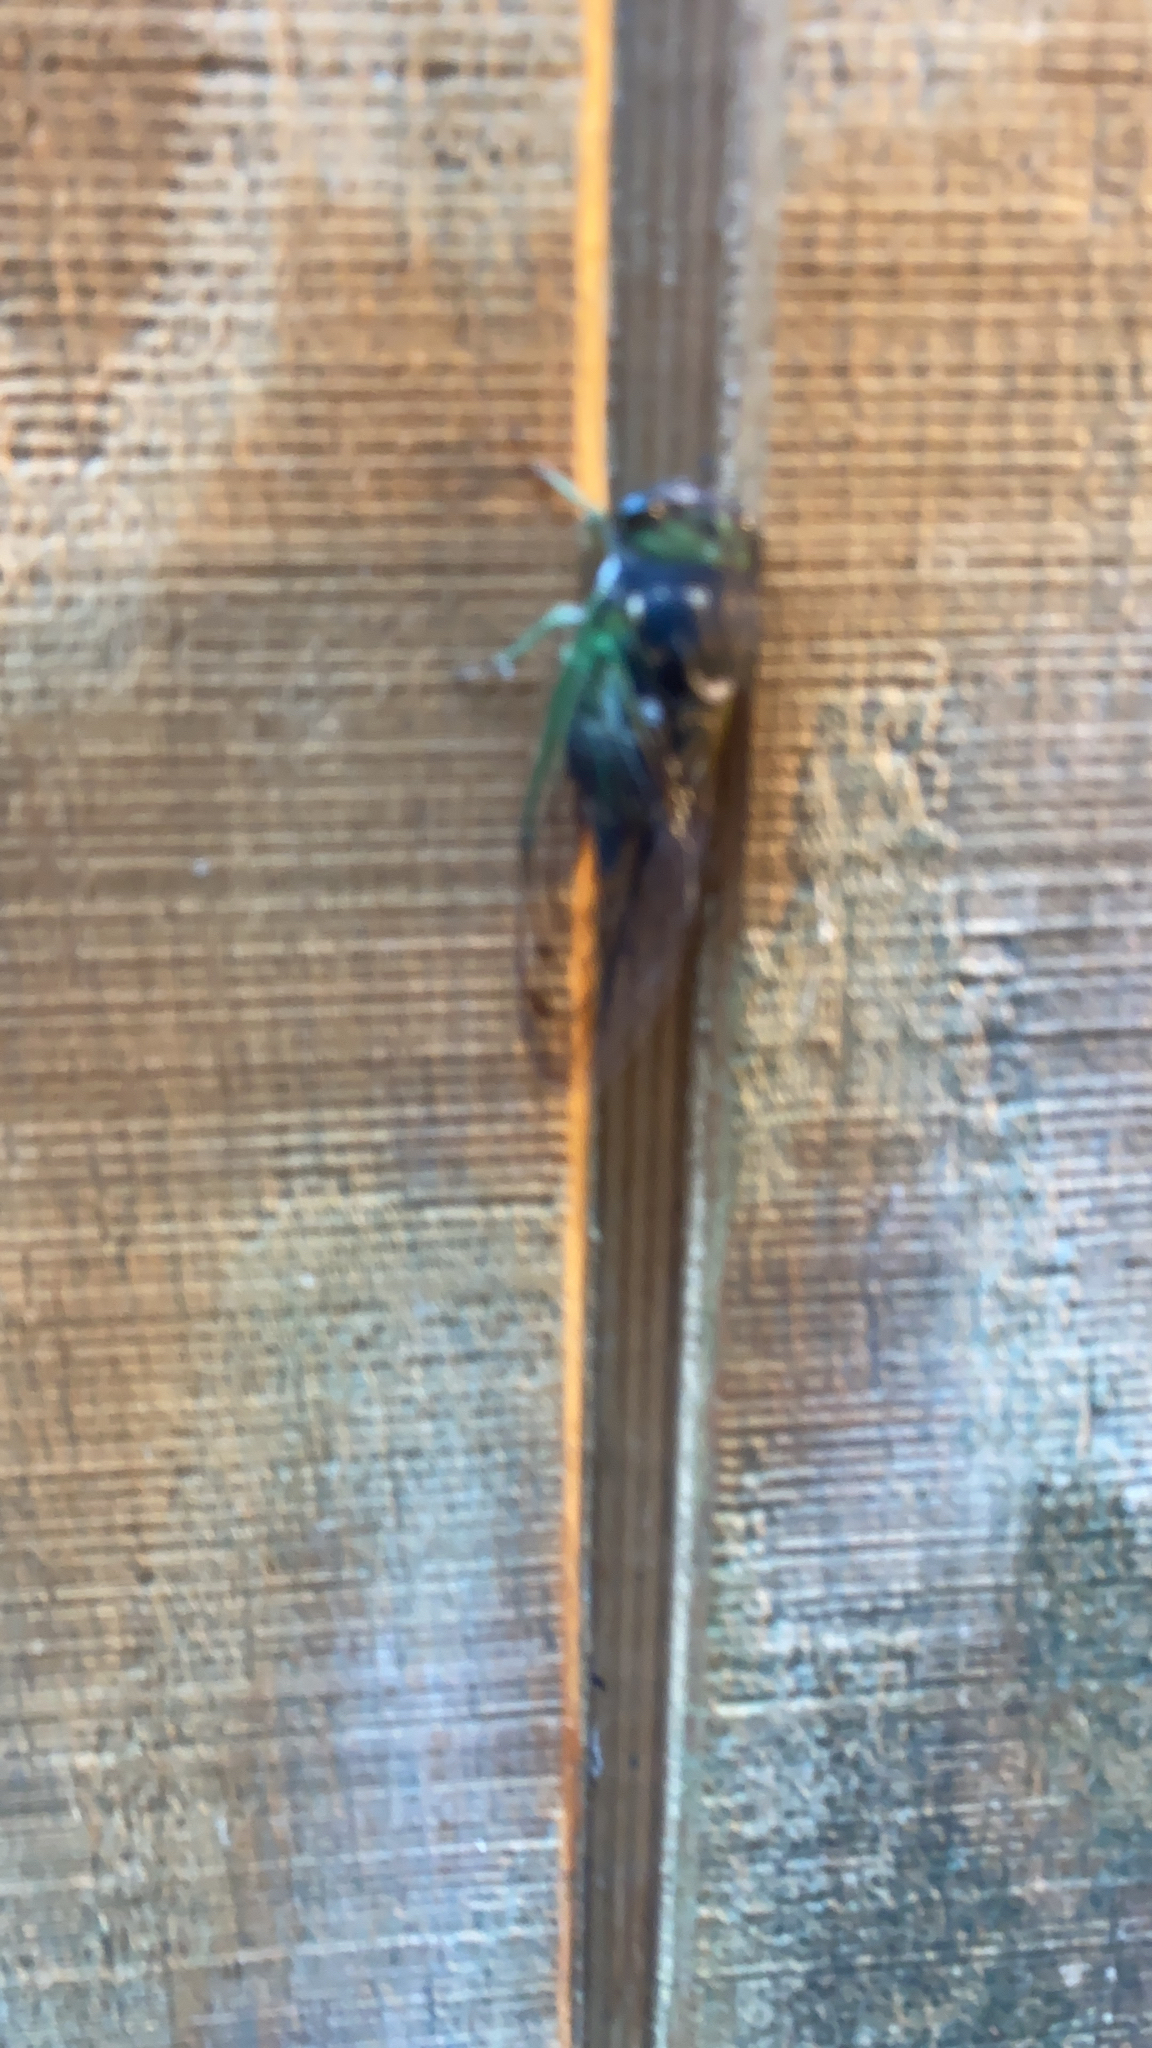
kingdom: Animalia
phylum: Arthropoda
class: Insecta
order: Hemiptera
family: Cicadidae
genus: Neotibicen
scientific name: Neotibicen tibicen
